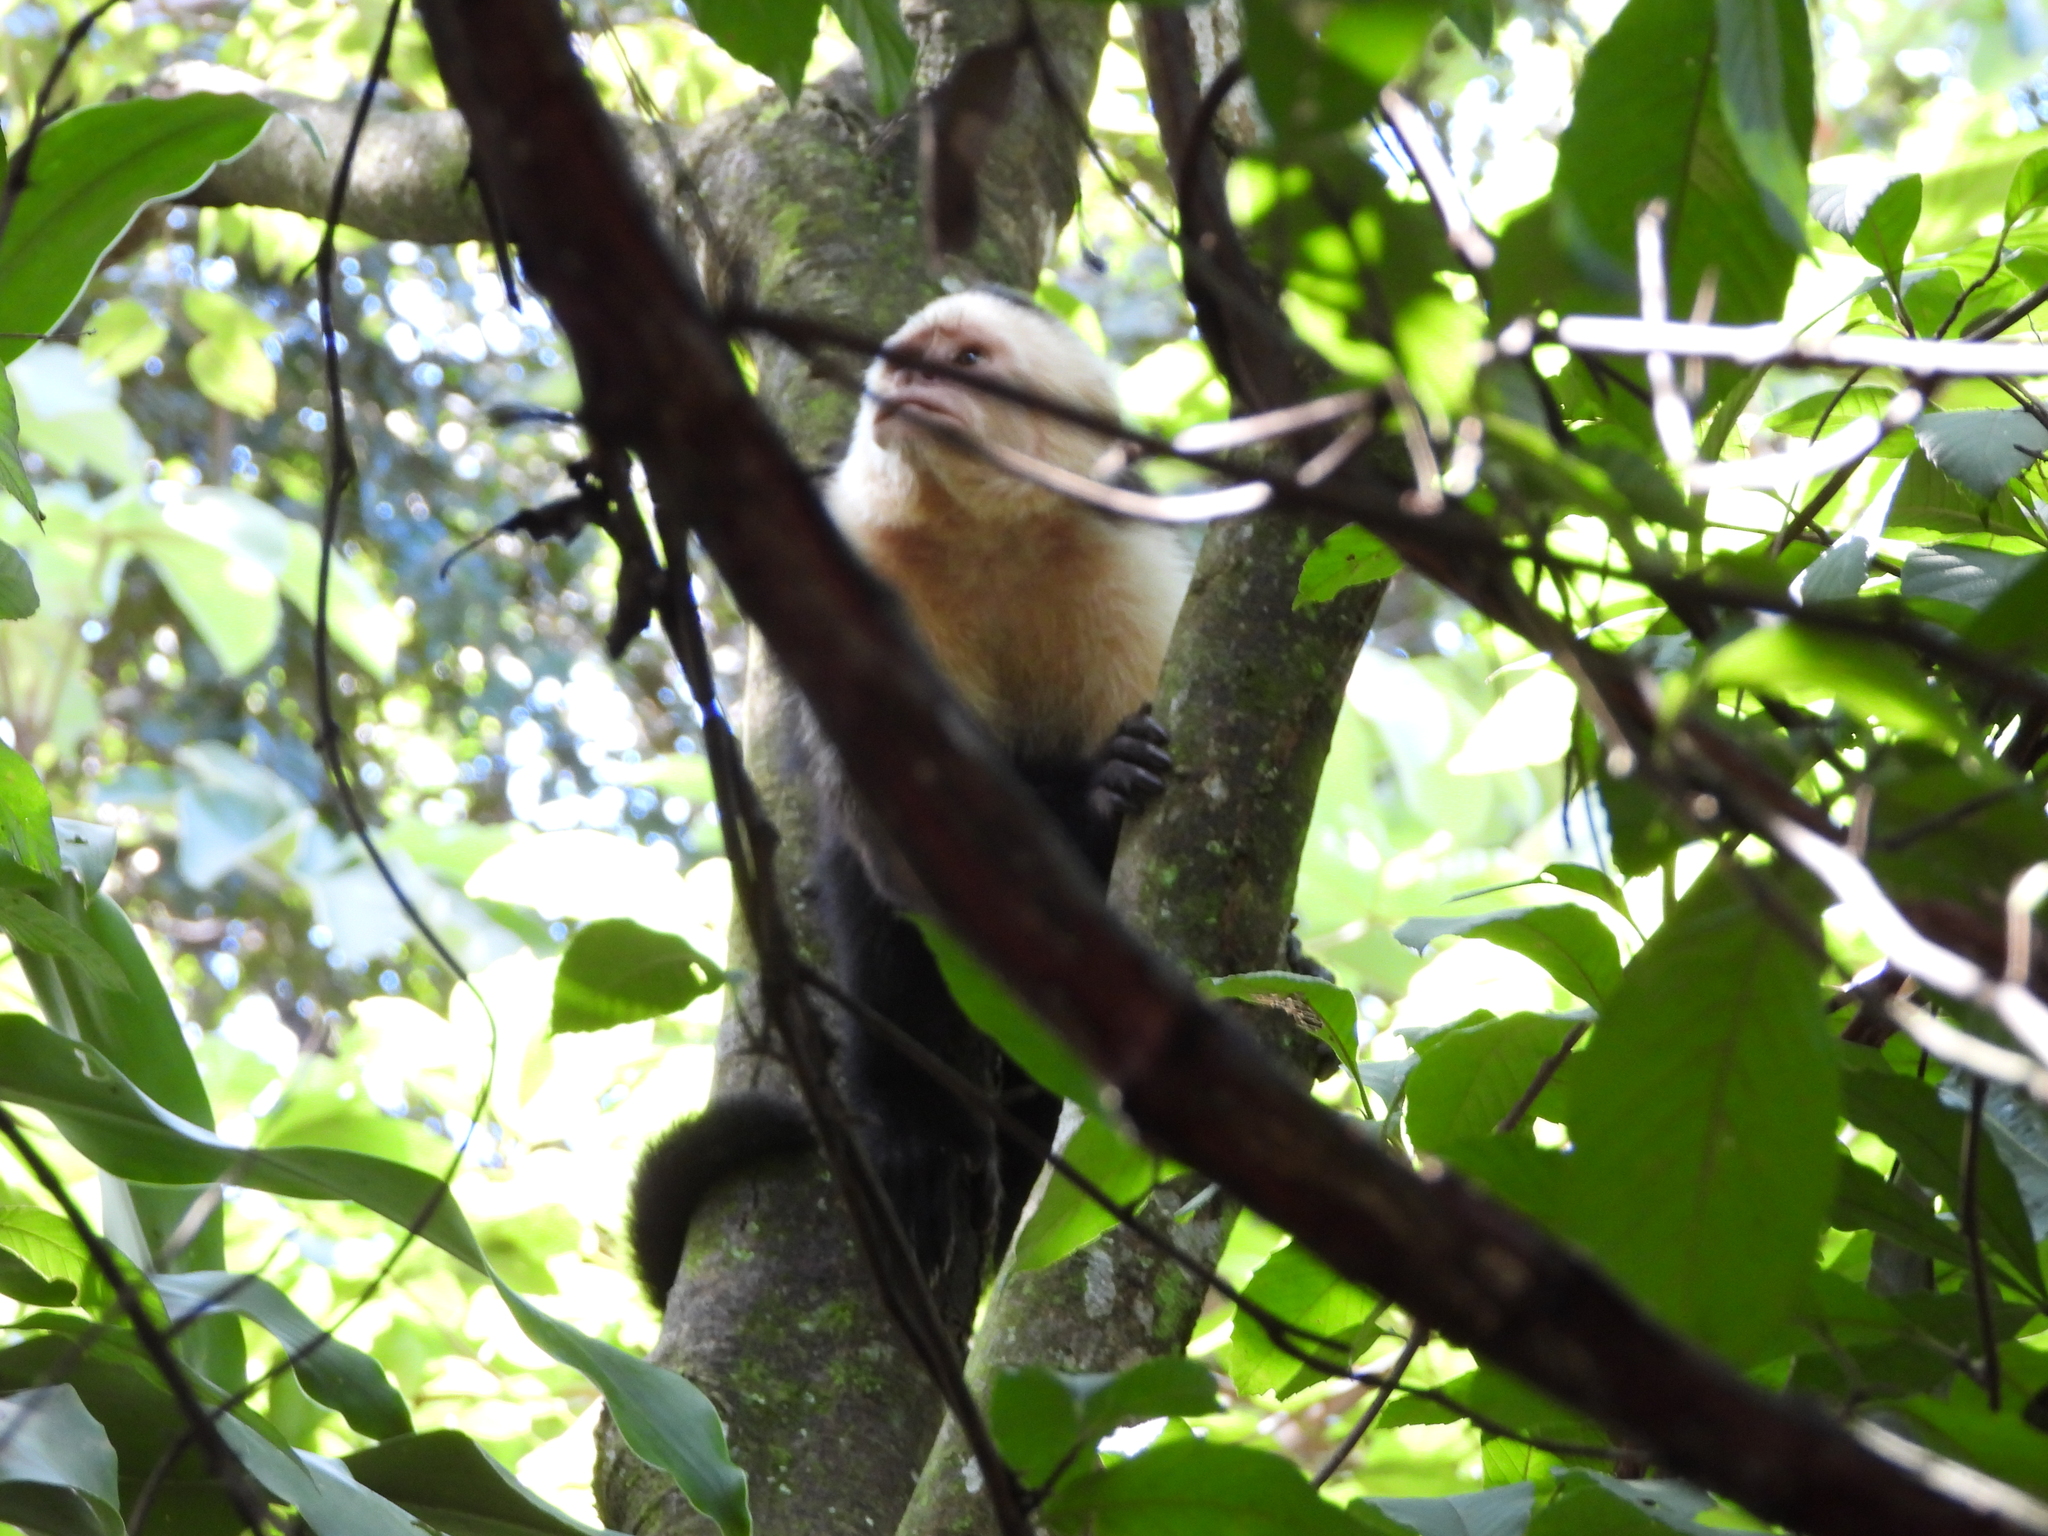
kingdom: Animalia
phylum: Chordata
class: Mammalia
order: Primates
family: Cebidae
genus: Cebus
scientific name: Cebus imitator
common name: Panamanian white-faced capuchin
